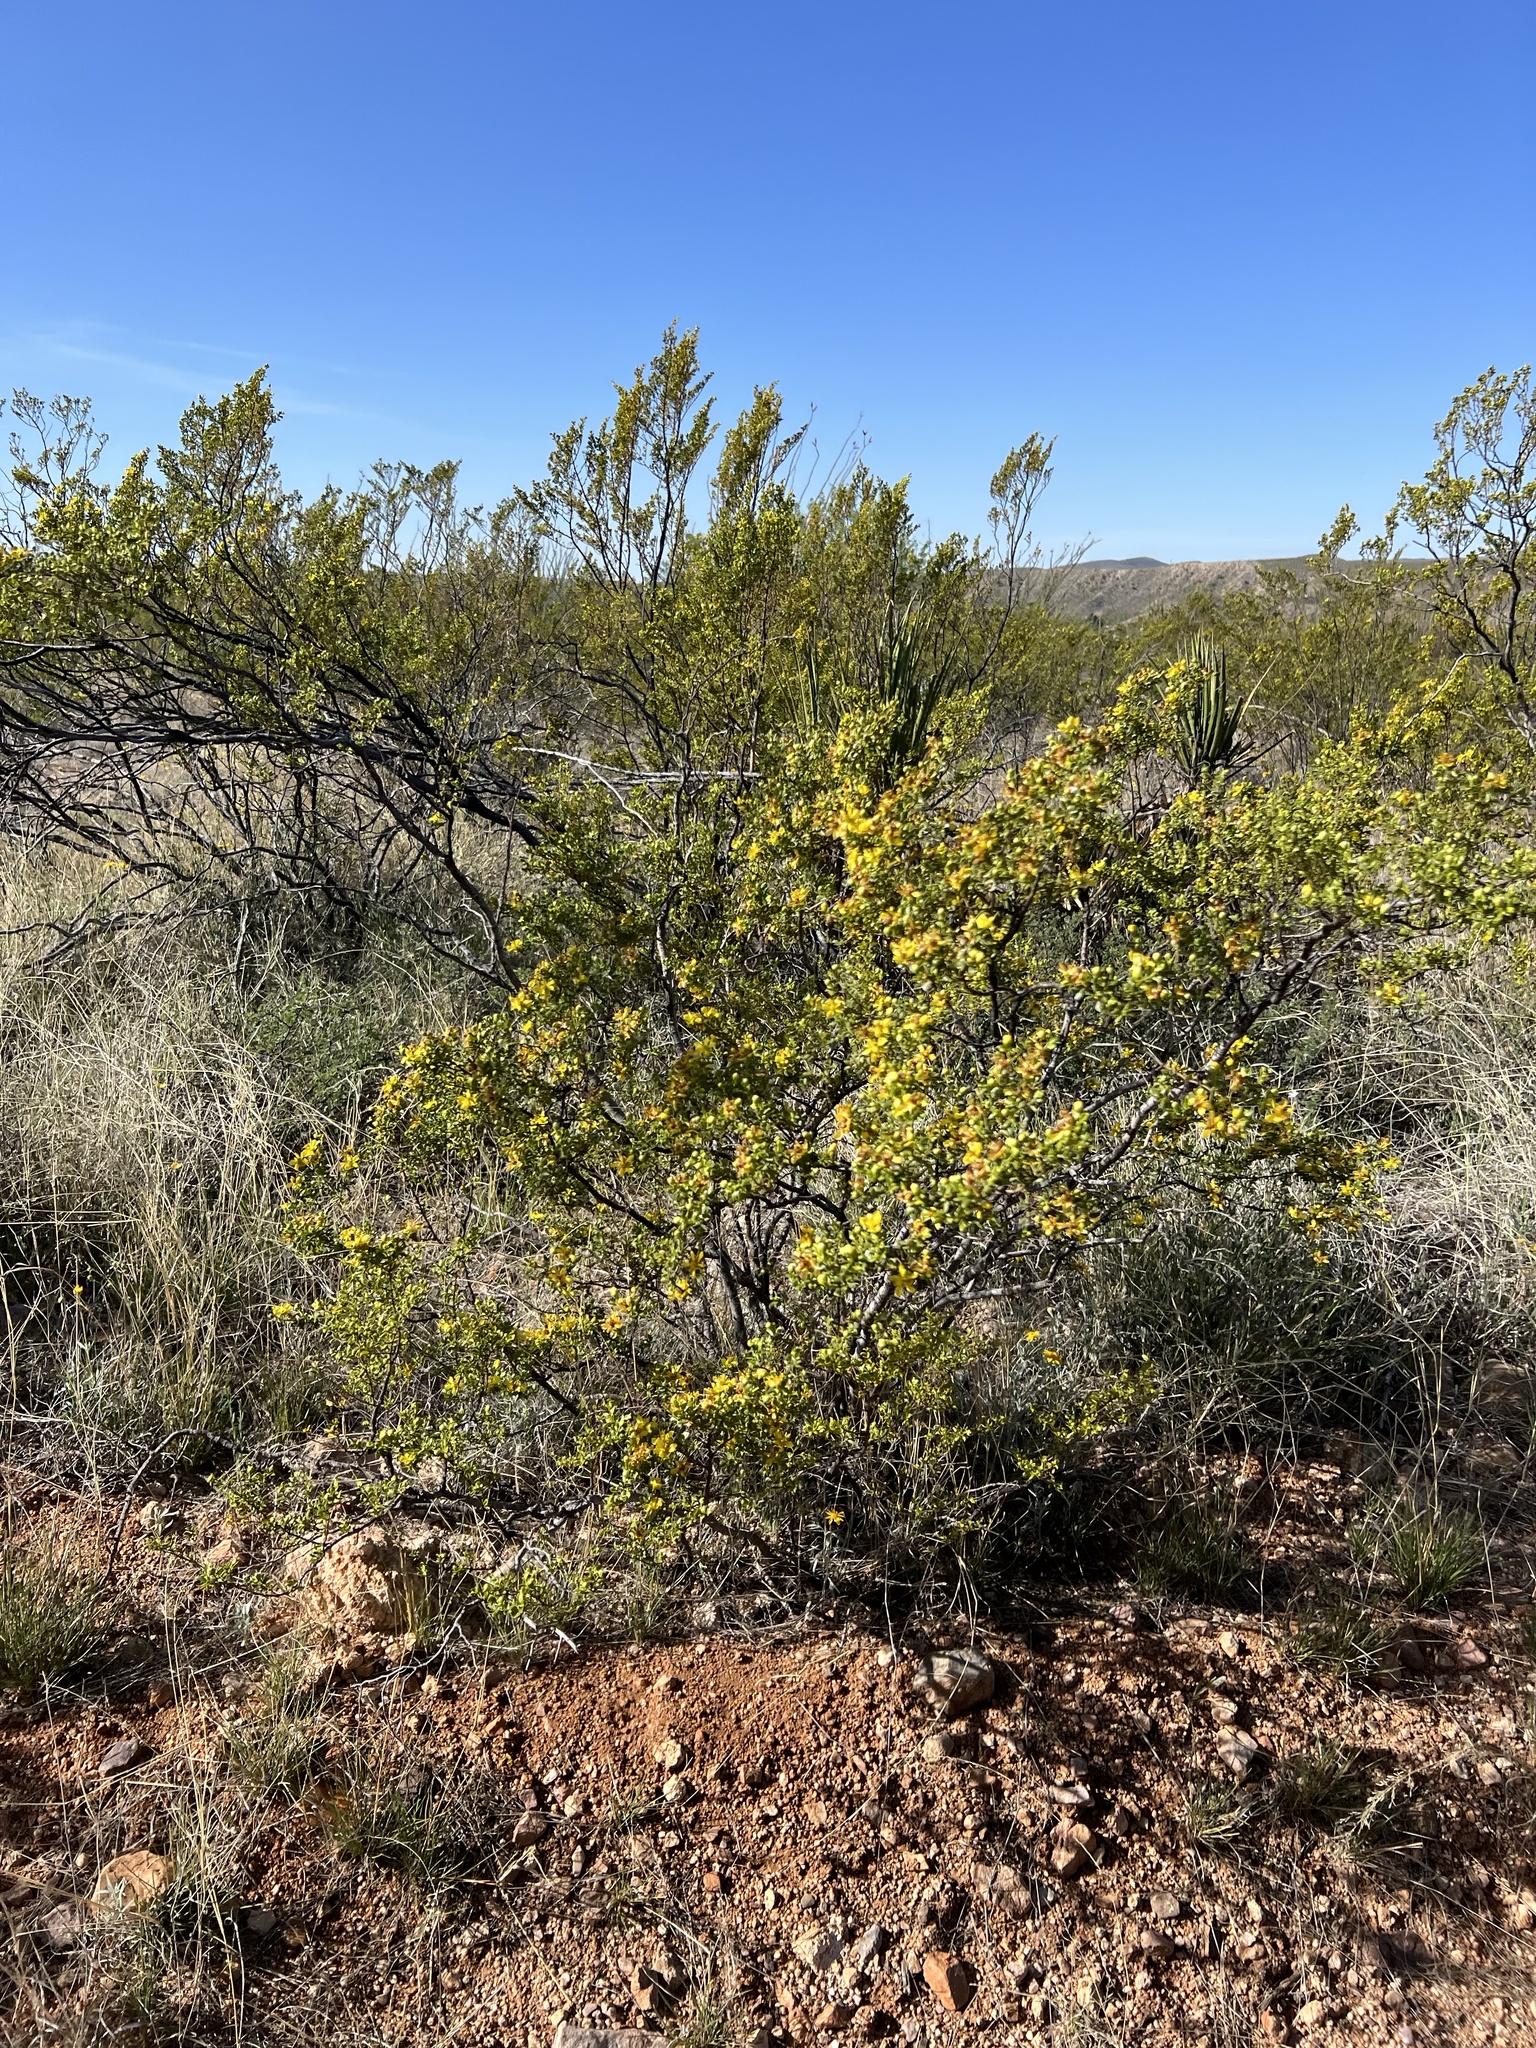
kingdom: Plantae
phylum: Tracheophyta
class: Magnoliopsida
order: Zygophyllales
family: Zygophyllaceae
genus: Larrea
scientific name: Larrea tridentata
